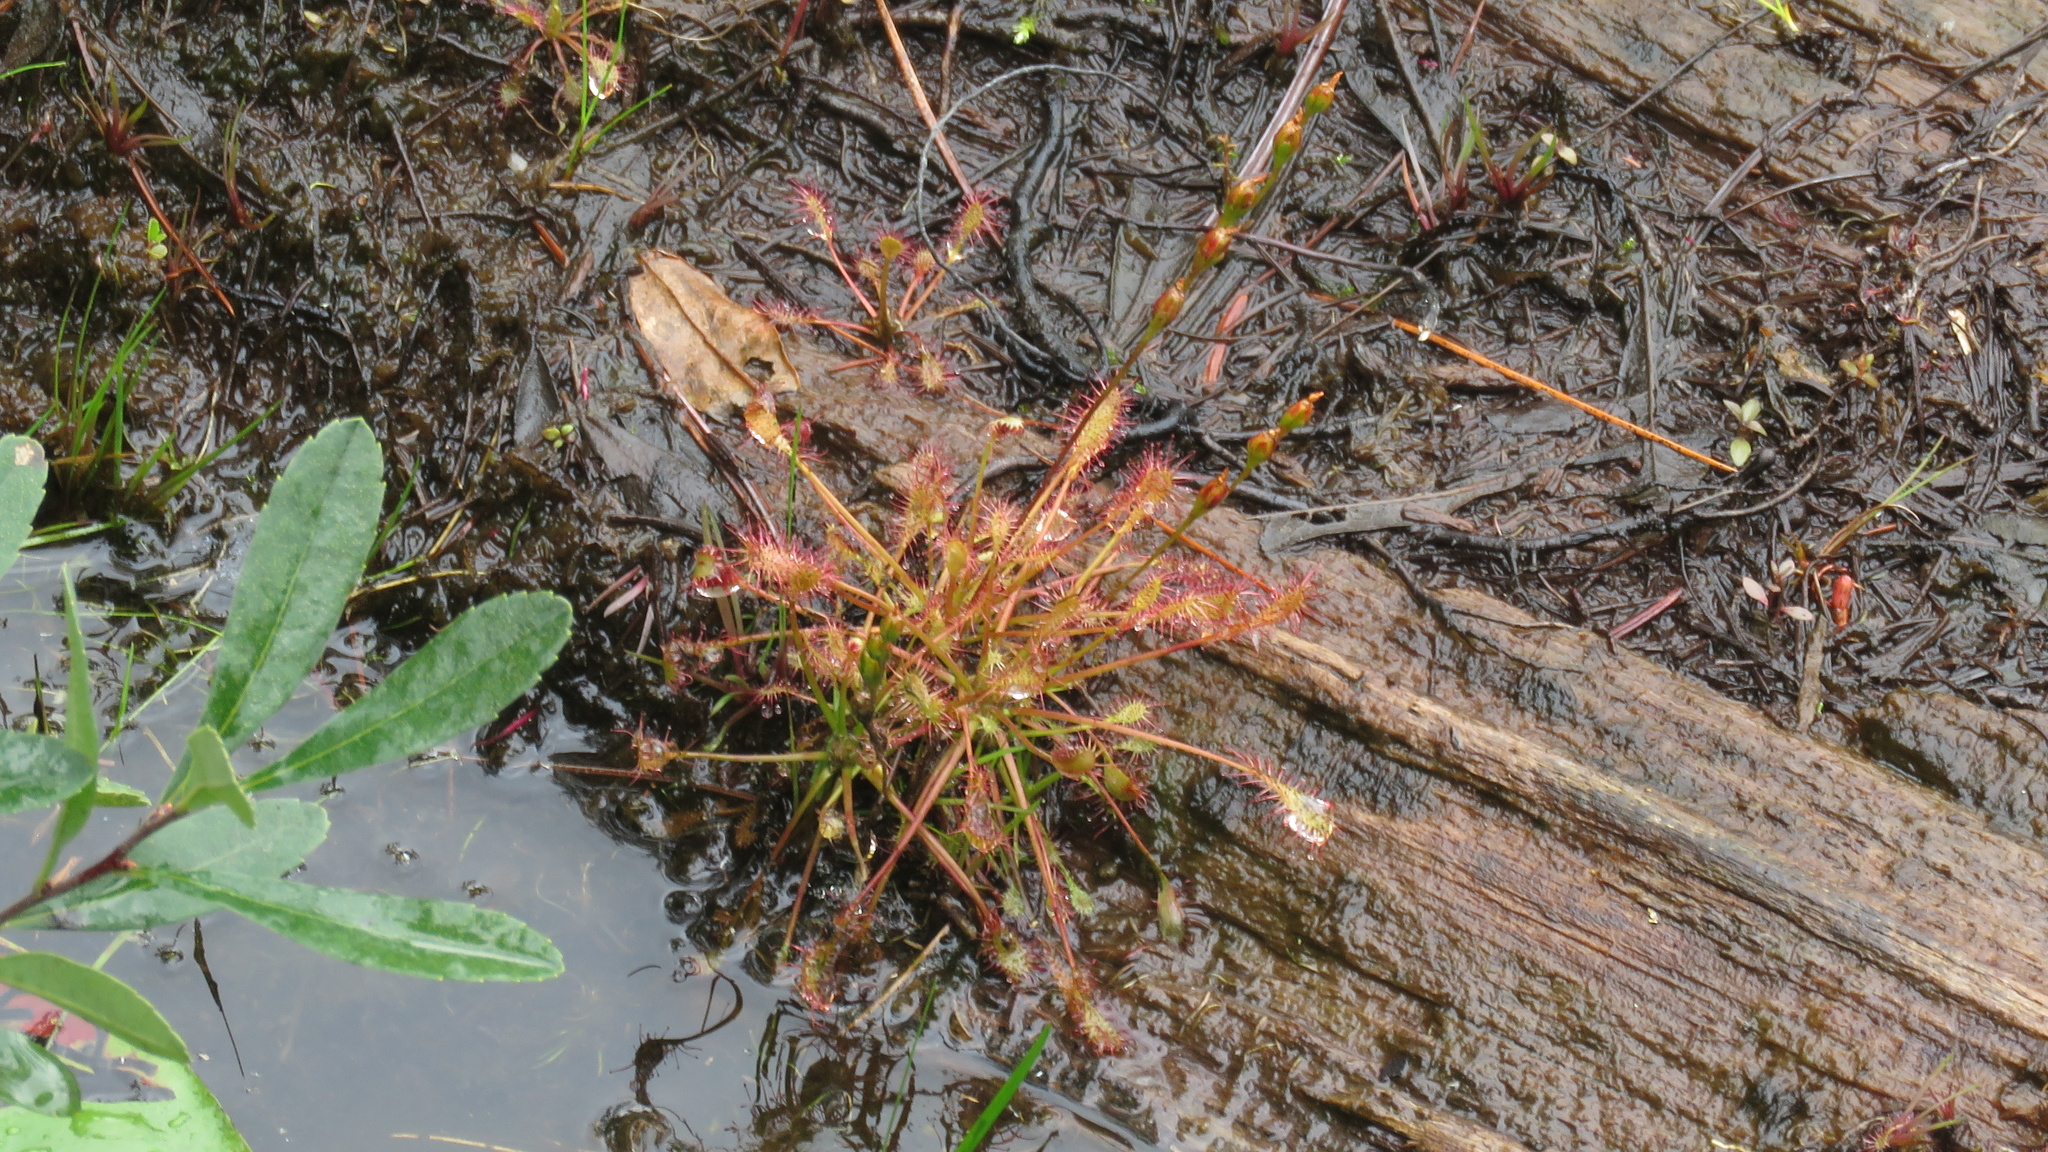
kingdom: Plantae
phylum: Tracheophyta
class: Magnoliopsida
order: Caryophyllales
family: Droseraceae
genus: Drosera
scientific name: Drosera intermedia
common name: Oblong-leaved sundew
